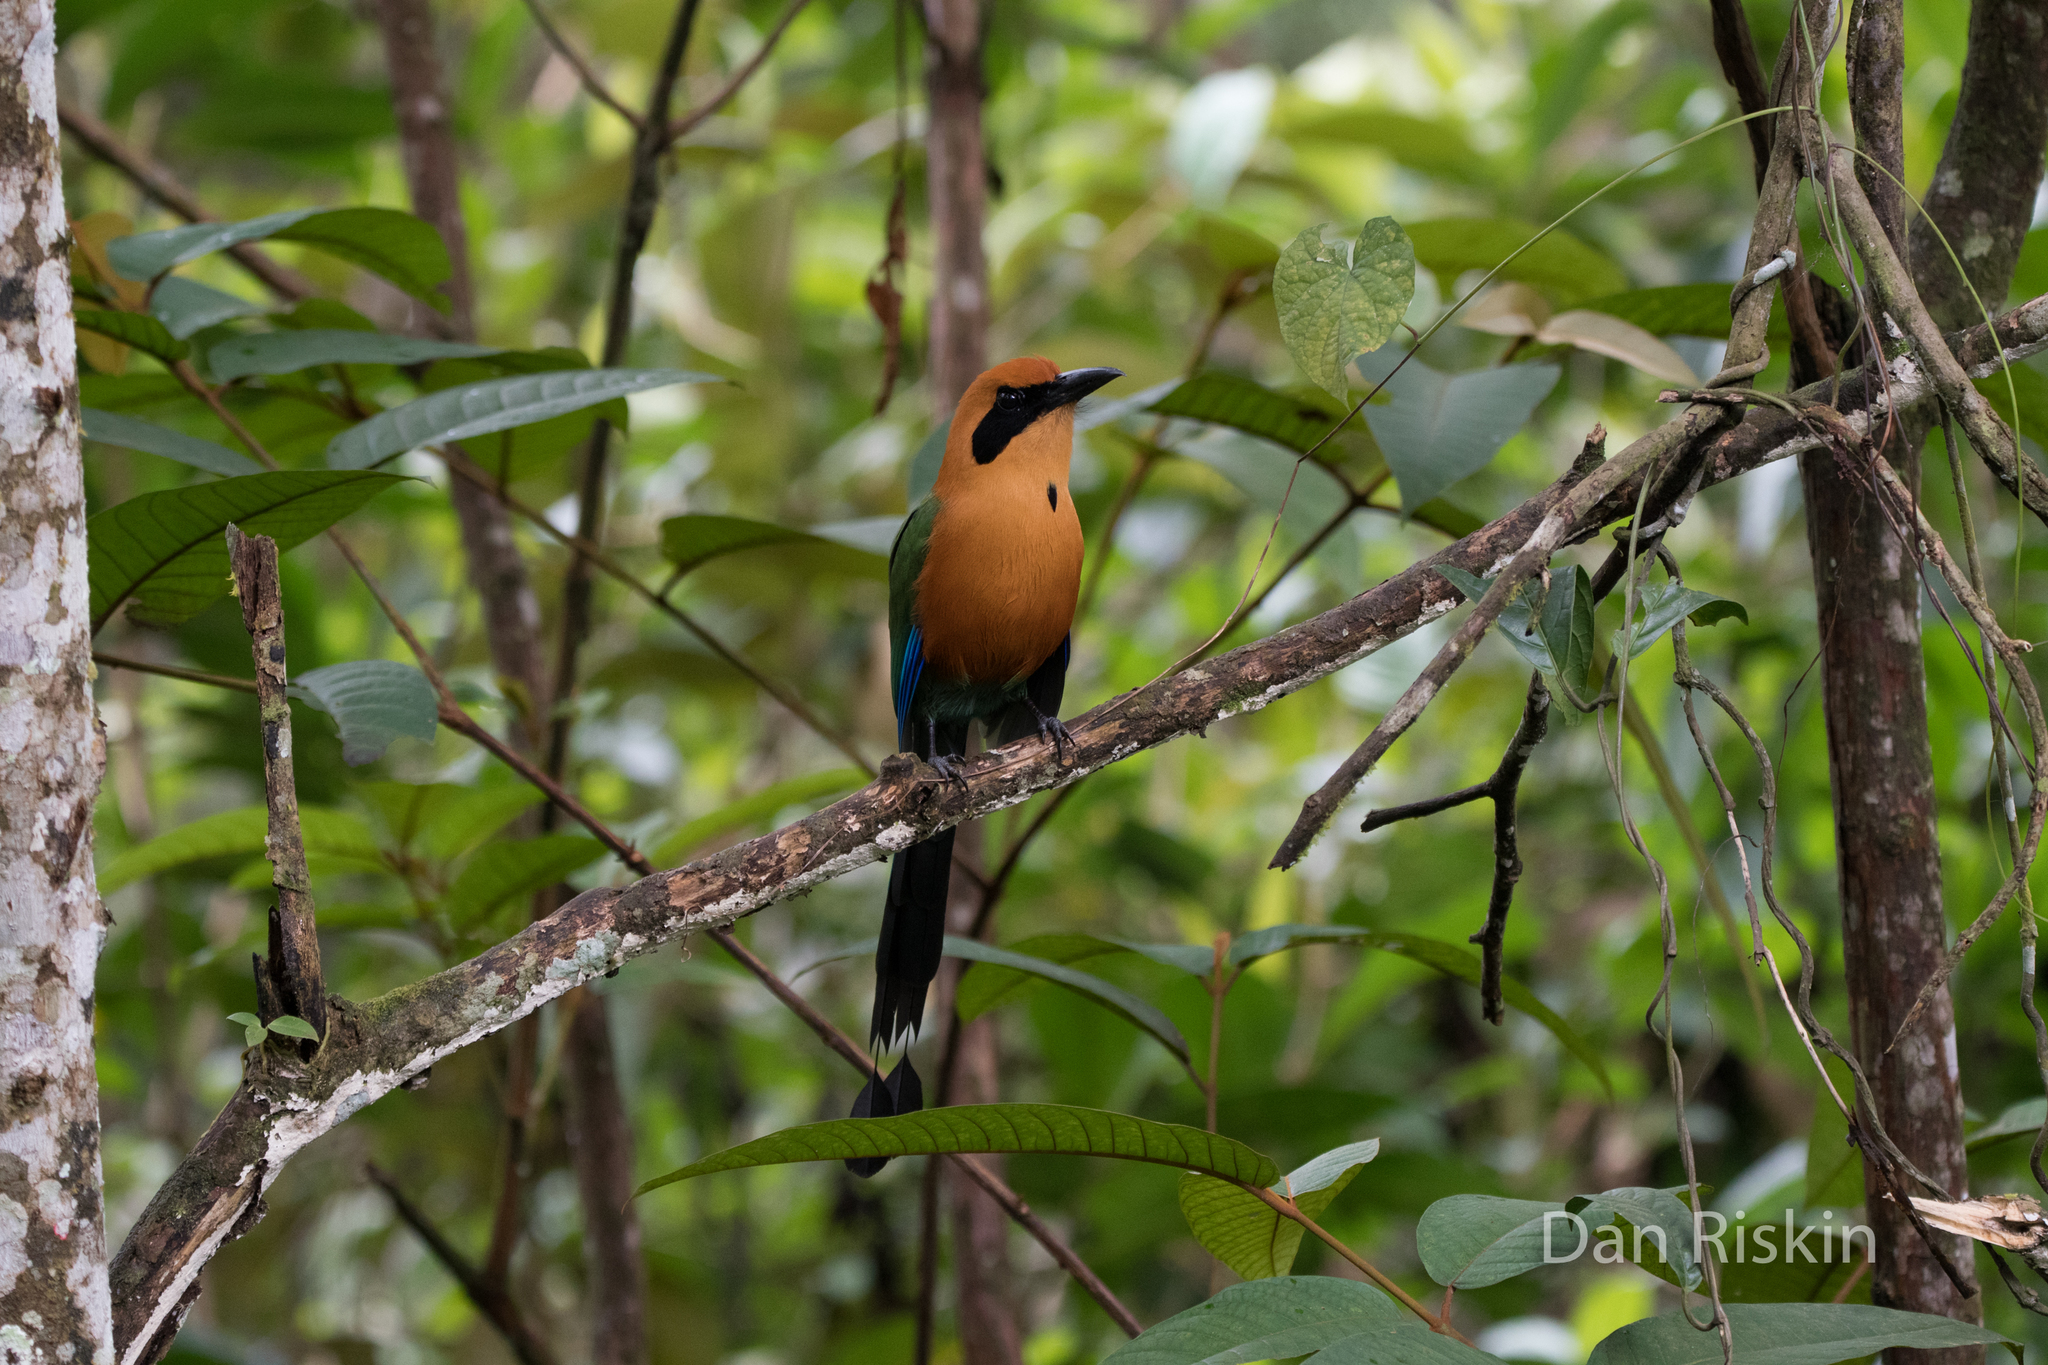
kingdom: Animalia
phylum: Chordata
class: Aves
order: Coraciiformes
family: Momotidae
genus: Baryphthengus
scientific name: Baryphthengus martii
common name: Rufous motmot
